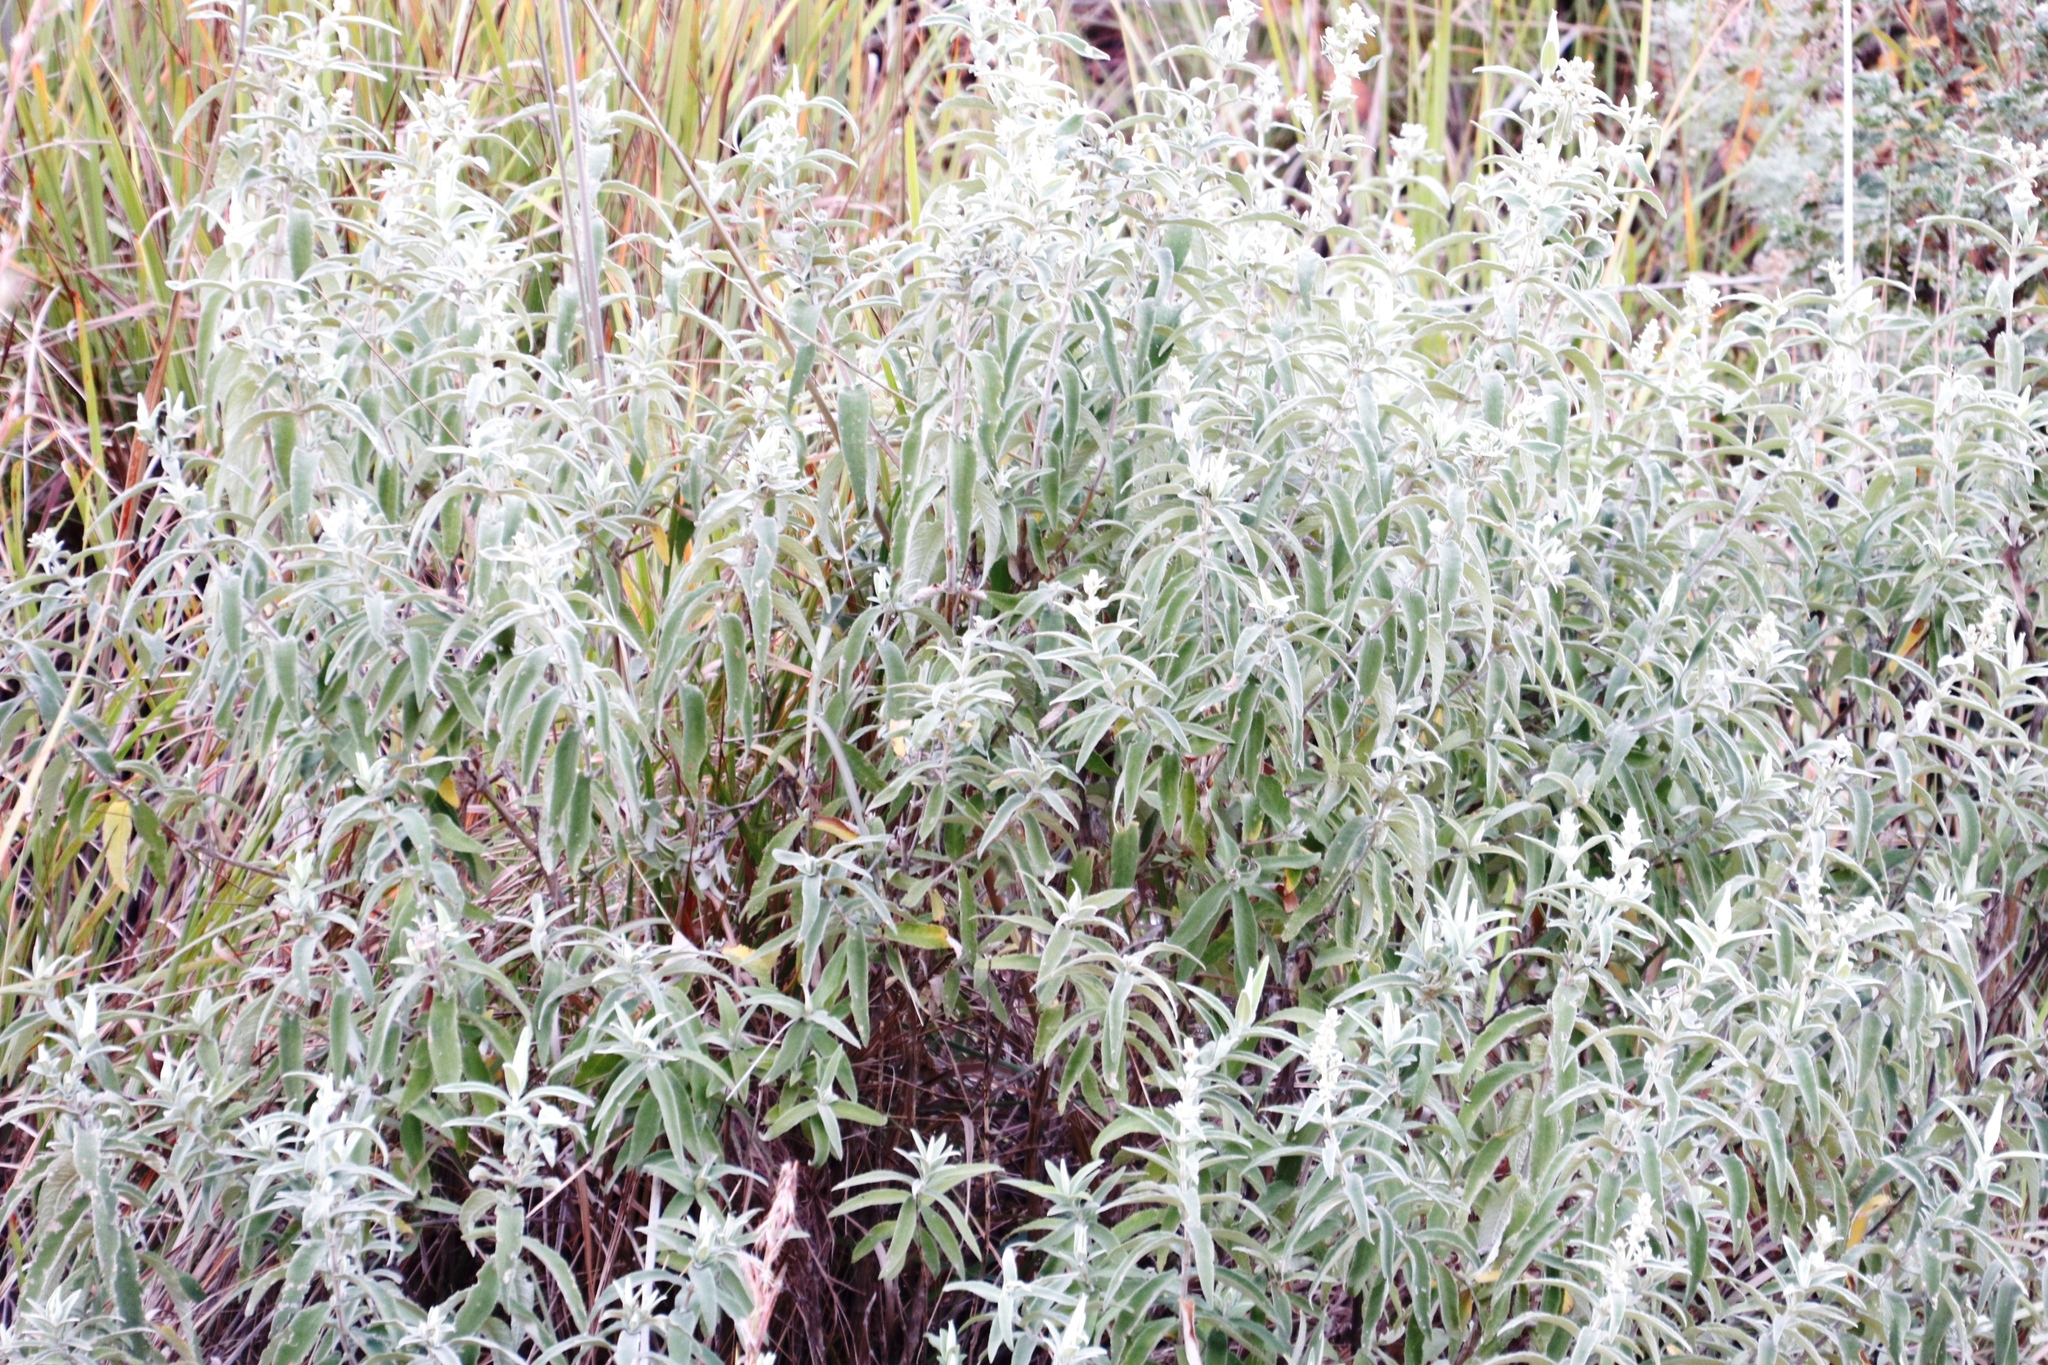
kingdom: Plantae
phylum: Tracheophyta
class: Magnoliopsida
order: Lamiales
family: Scrophulariaceae
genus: Buddleja
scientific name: Buddleja salviifolia
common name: Sagewood
